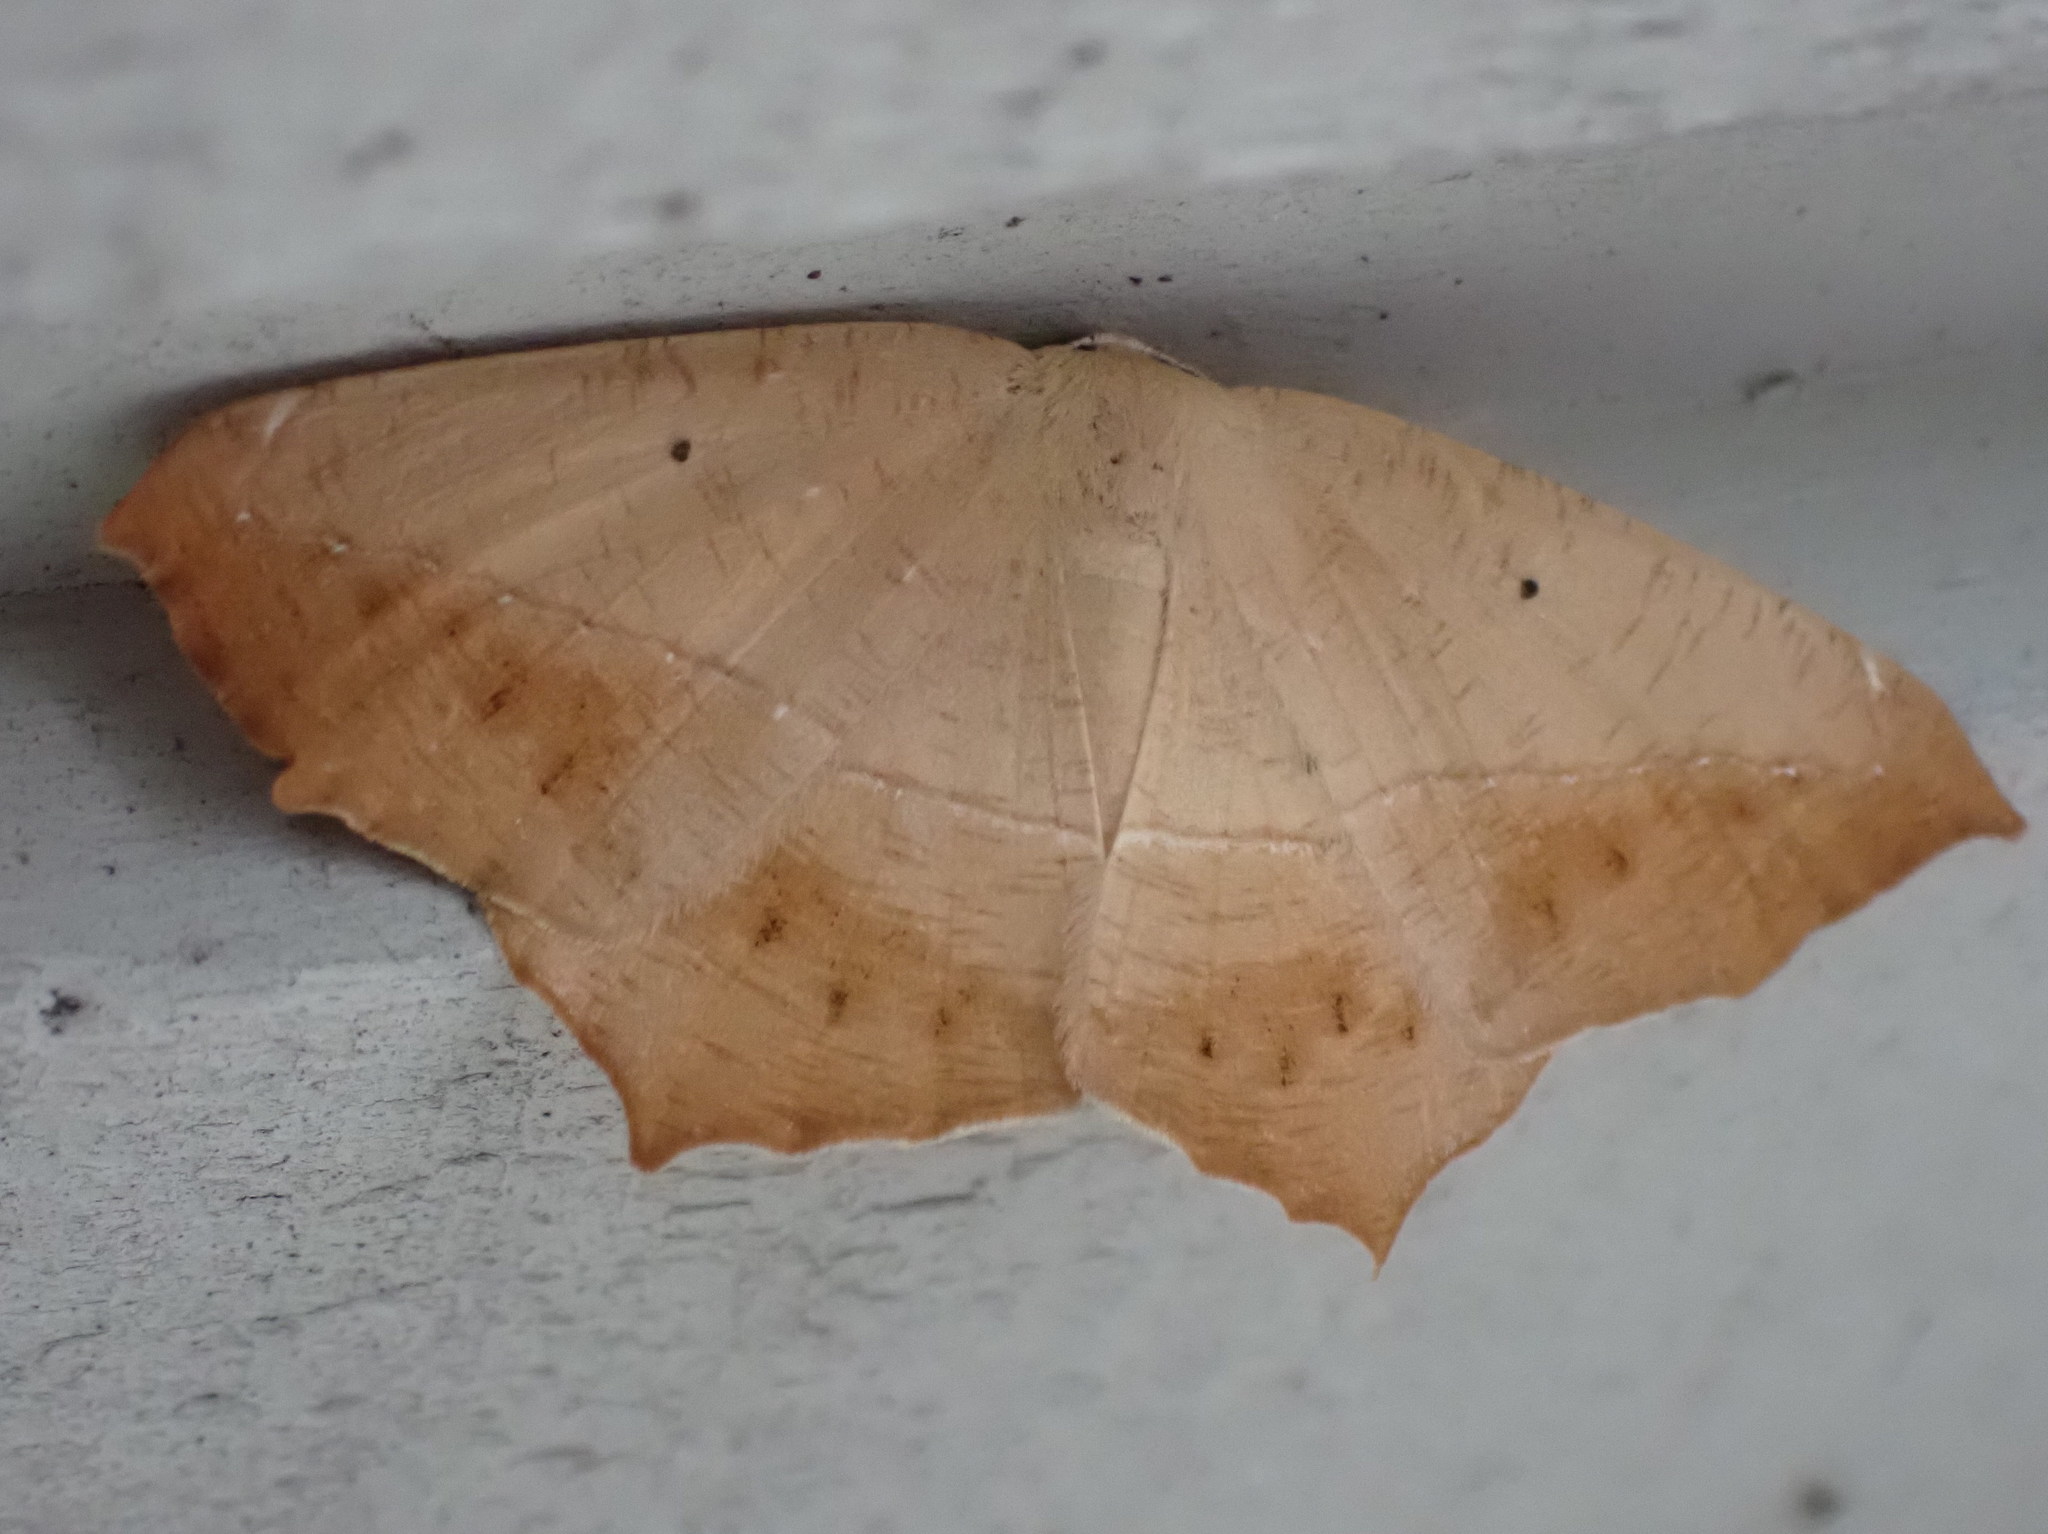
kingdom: Animalia
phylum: Arthropoda
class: Insecta
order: Lepidoptera
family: Geometridae
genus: Prochoerodes
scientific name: Prochoerodes lineola
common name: Large maple spanworm
